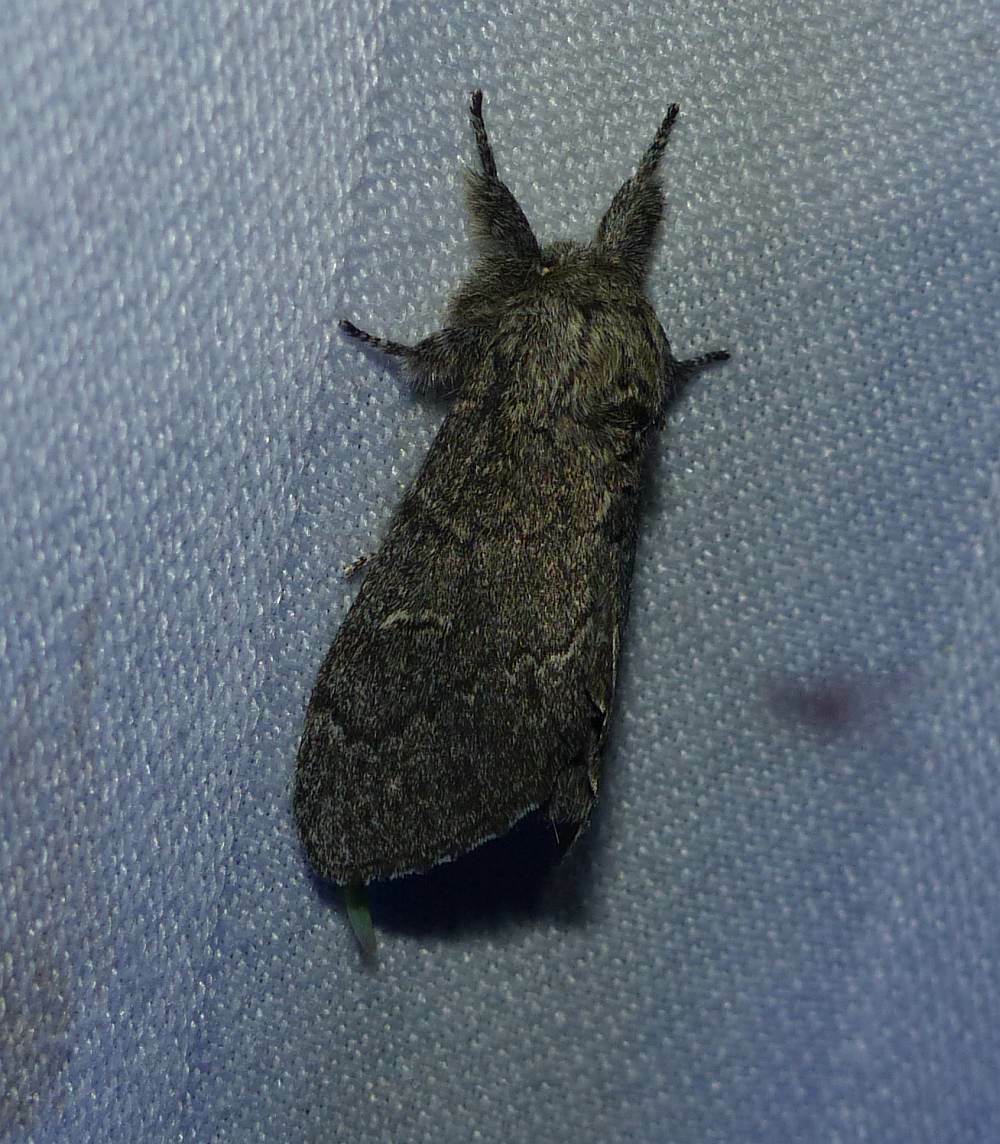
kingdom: Animalia
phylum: Arthropoda
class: Insecta
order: Lepidoptera
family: Notodontidae
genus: Notodonta
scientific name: Notodonta torva
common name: Large dark prominent
